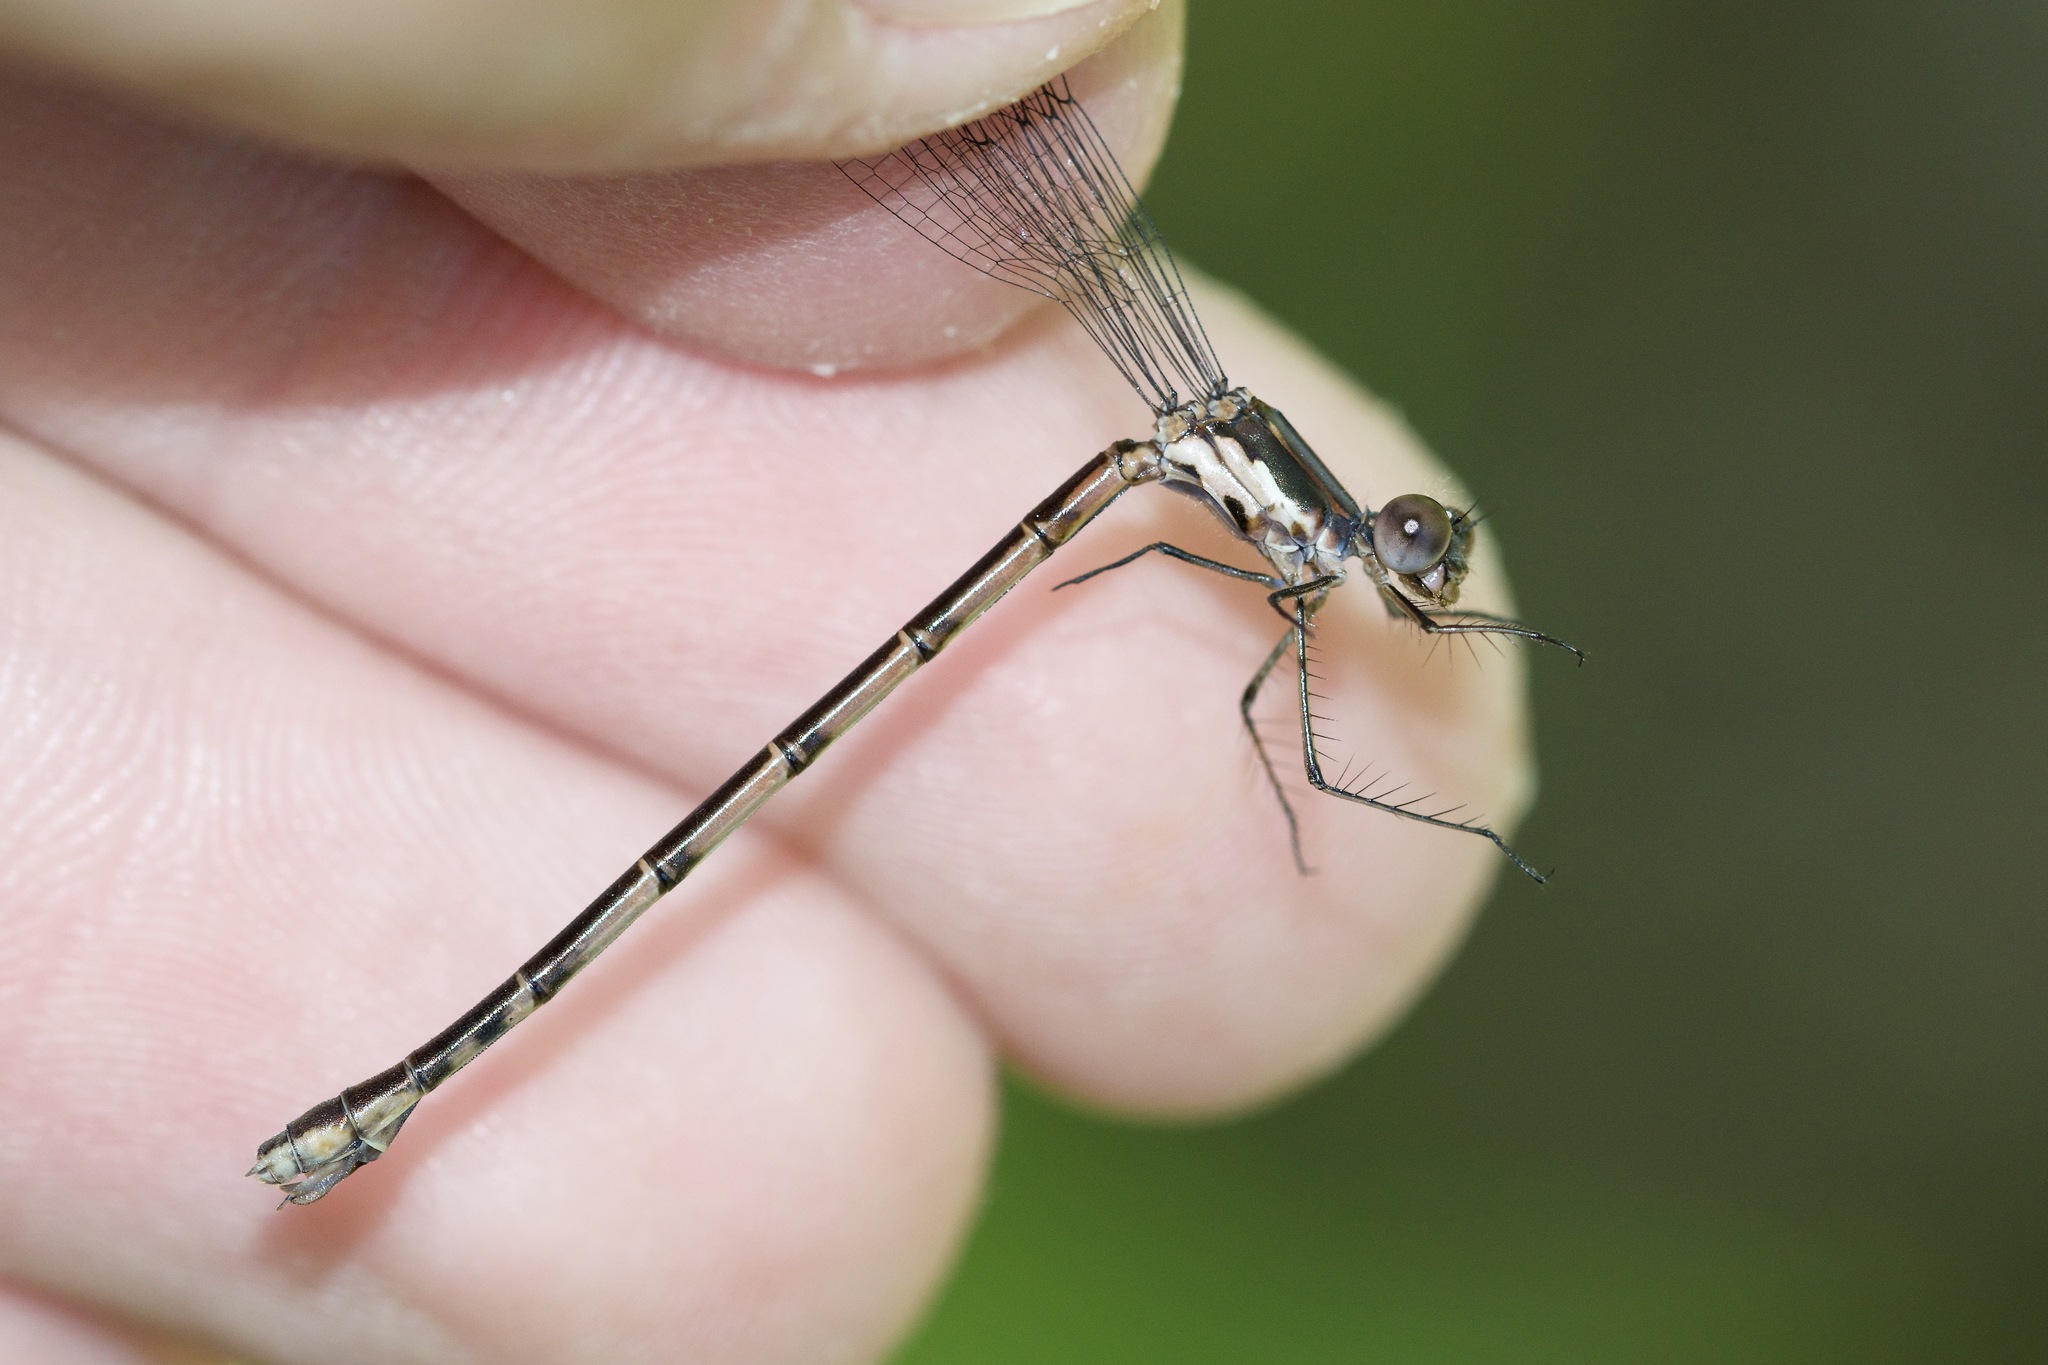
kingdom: Animalia
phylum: Arthropoda
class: Insecta
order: Odonata
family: Lestidae
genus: Lestes
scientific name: Lestes congener
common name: Spotted spreadwing
